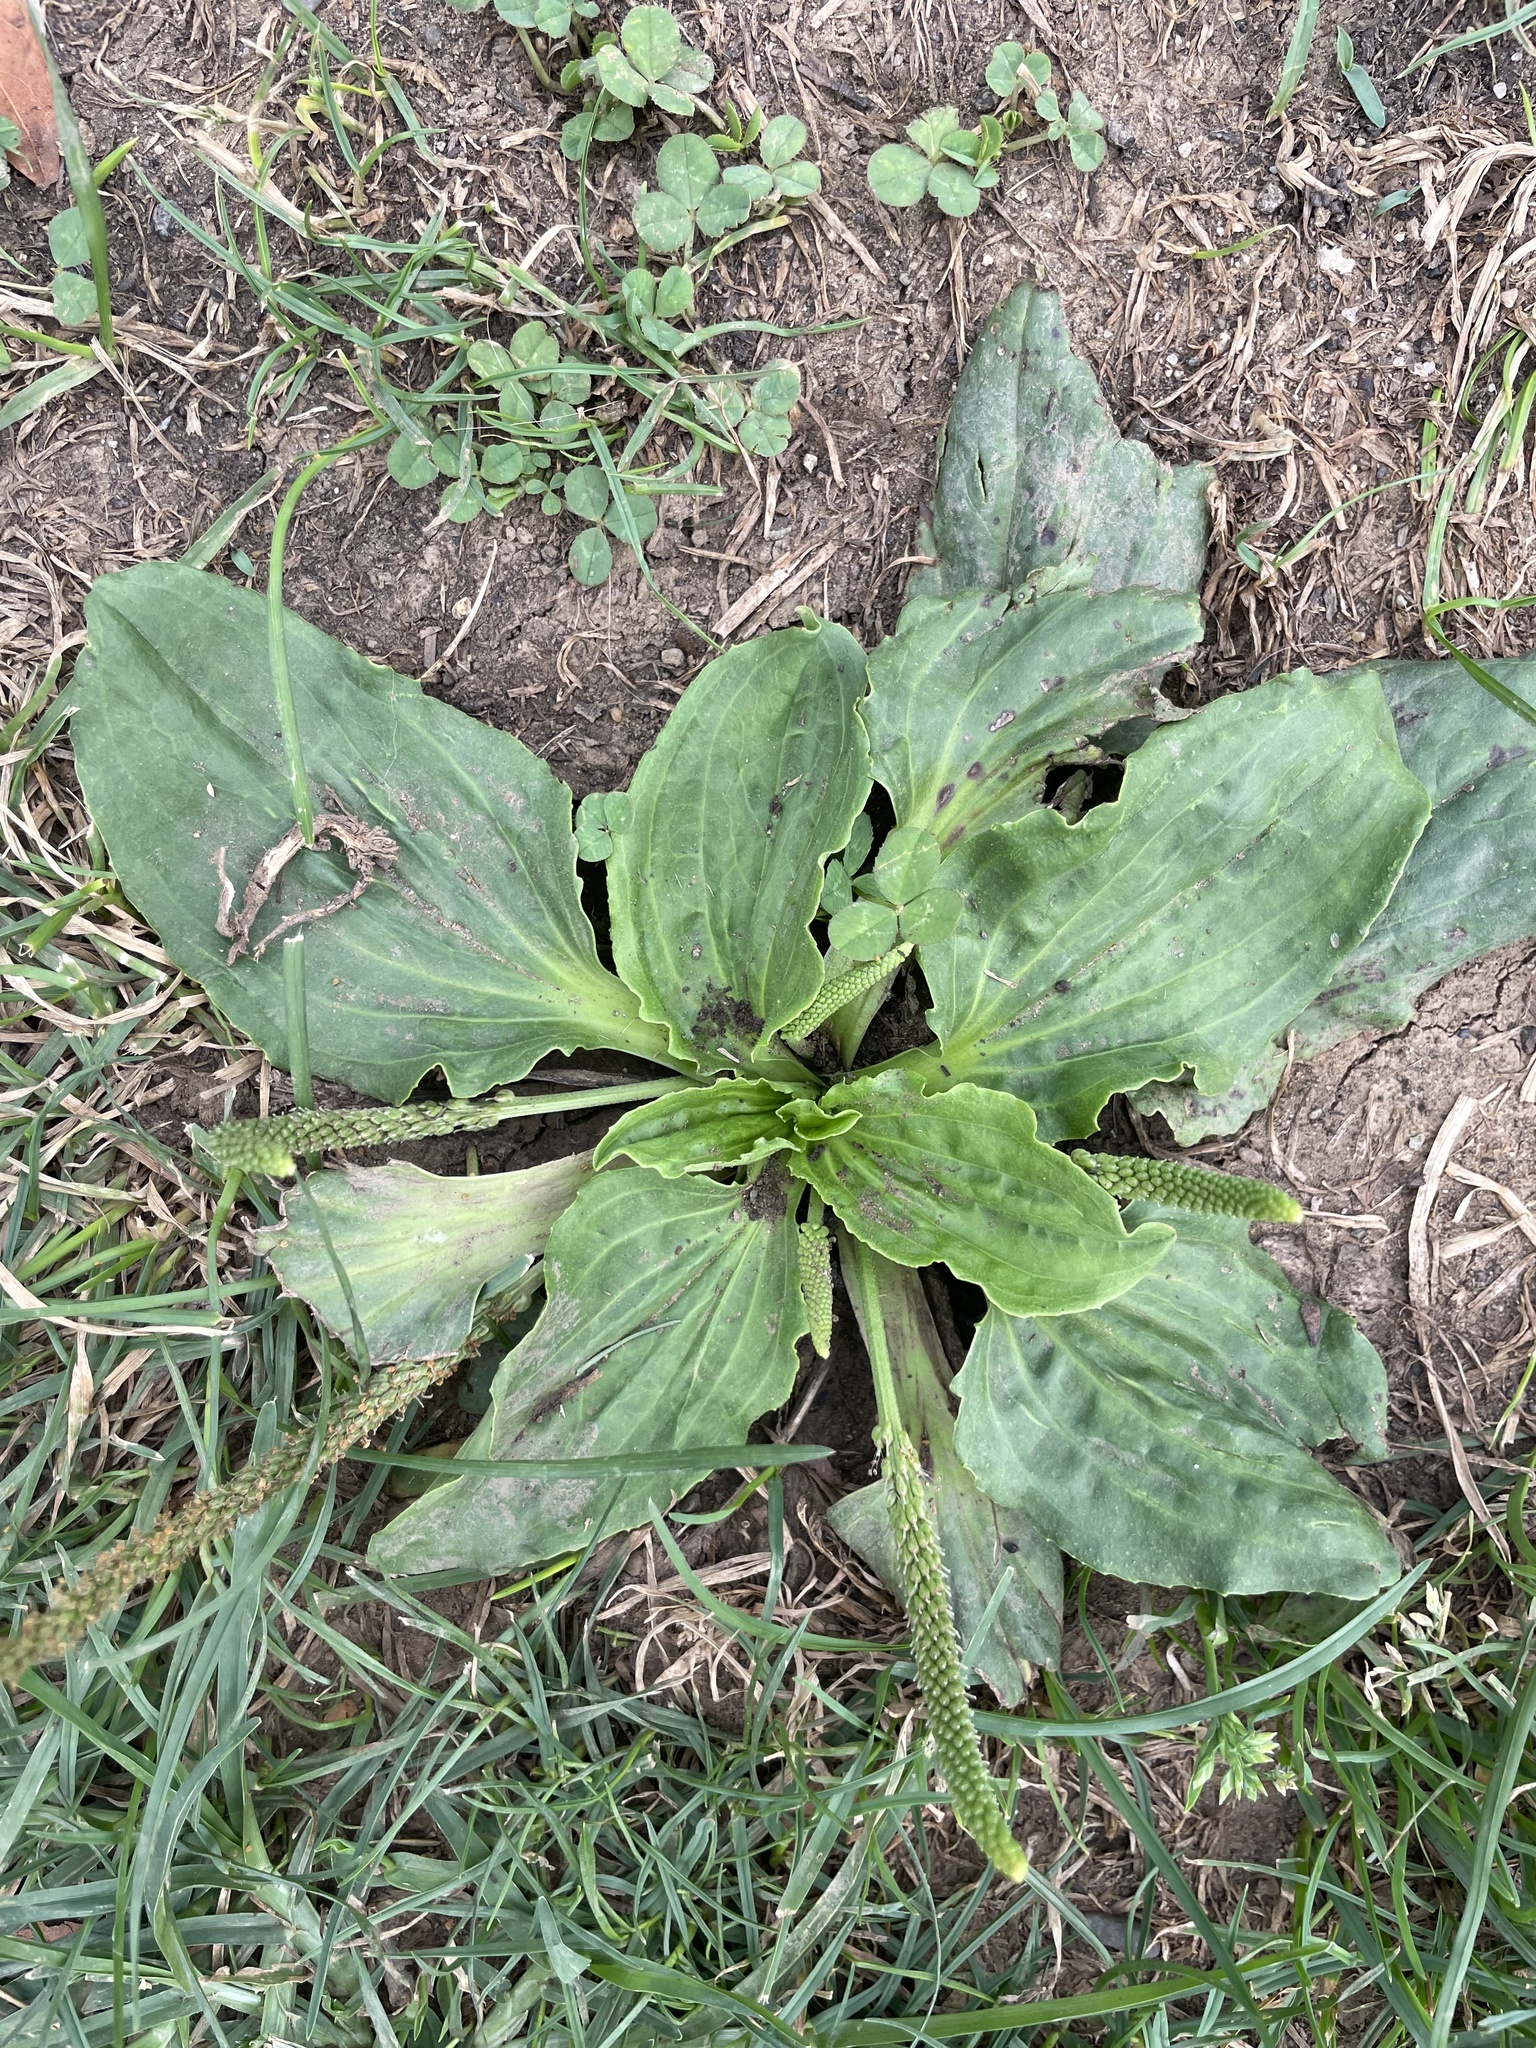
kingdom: Plantae
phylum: Tracheophyta
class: Magnoliopsida
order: Lamiales
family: Plantaginaceae
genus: Plantago
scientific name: Plantago major
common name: Common plantain
